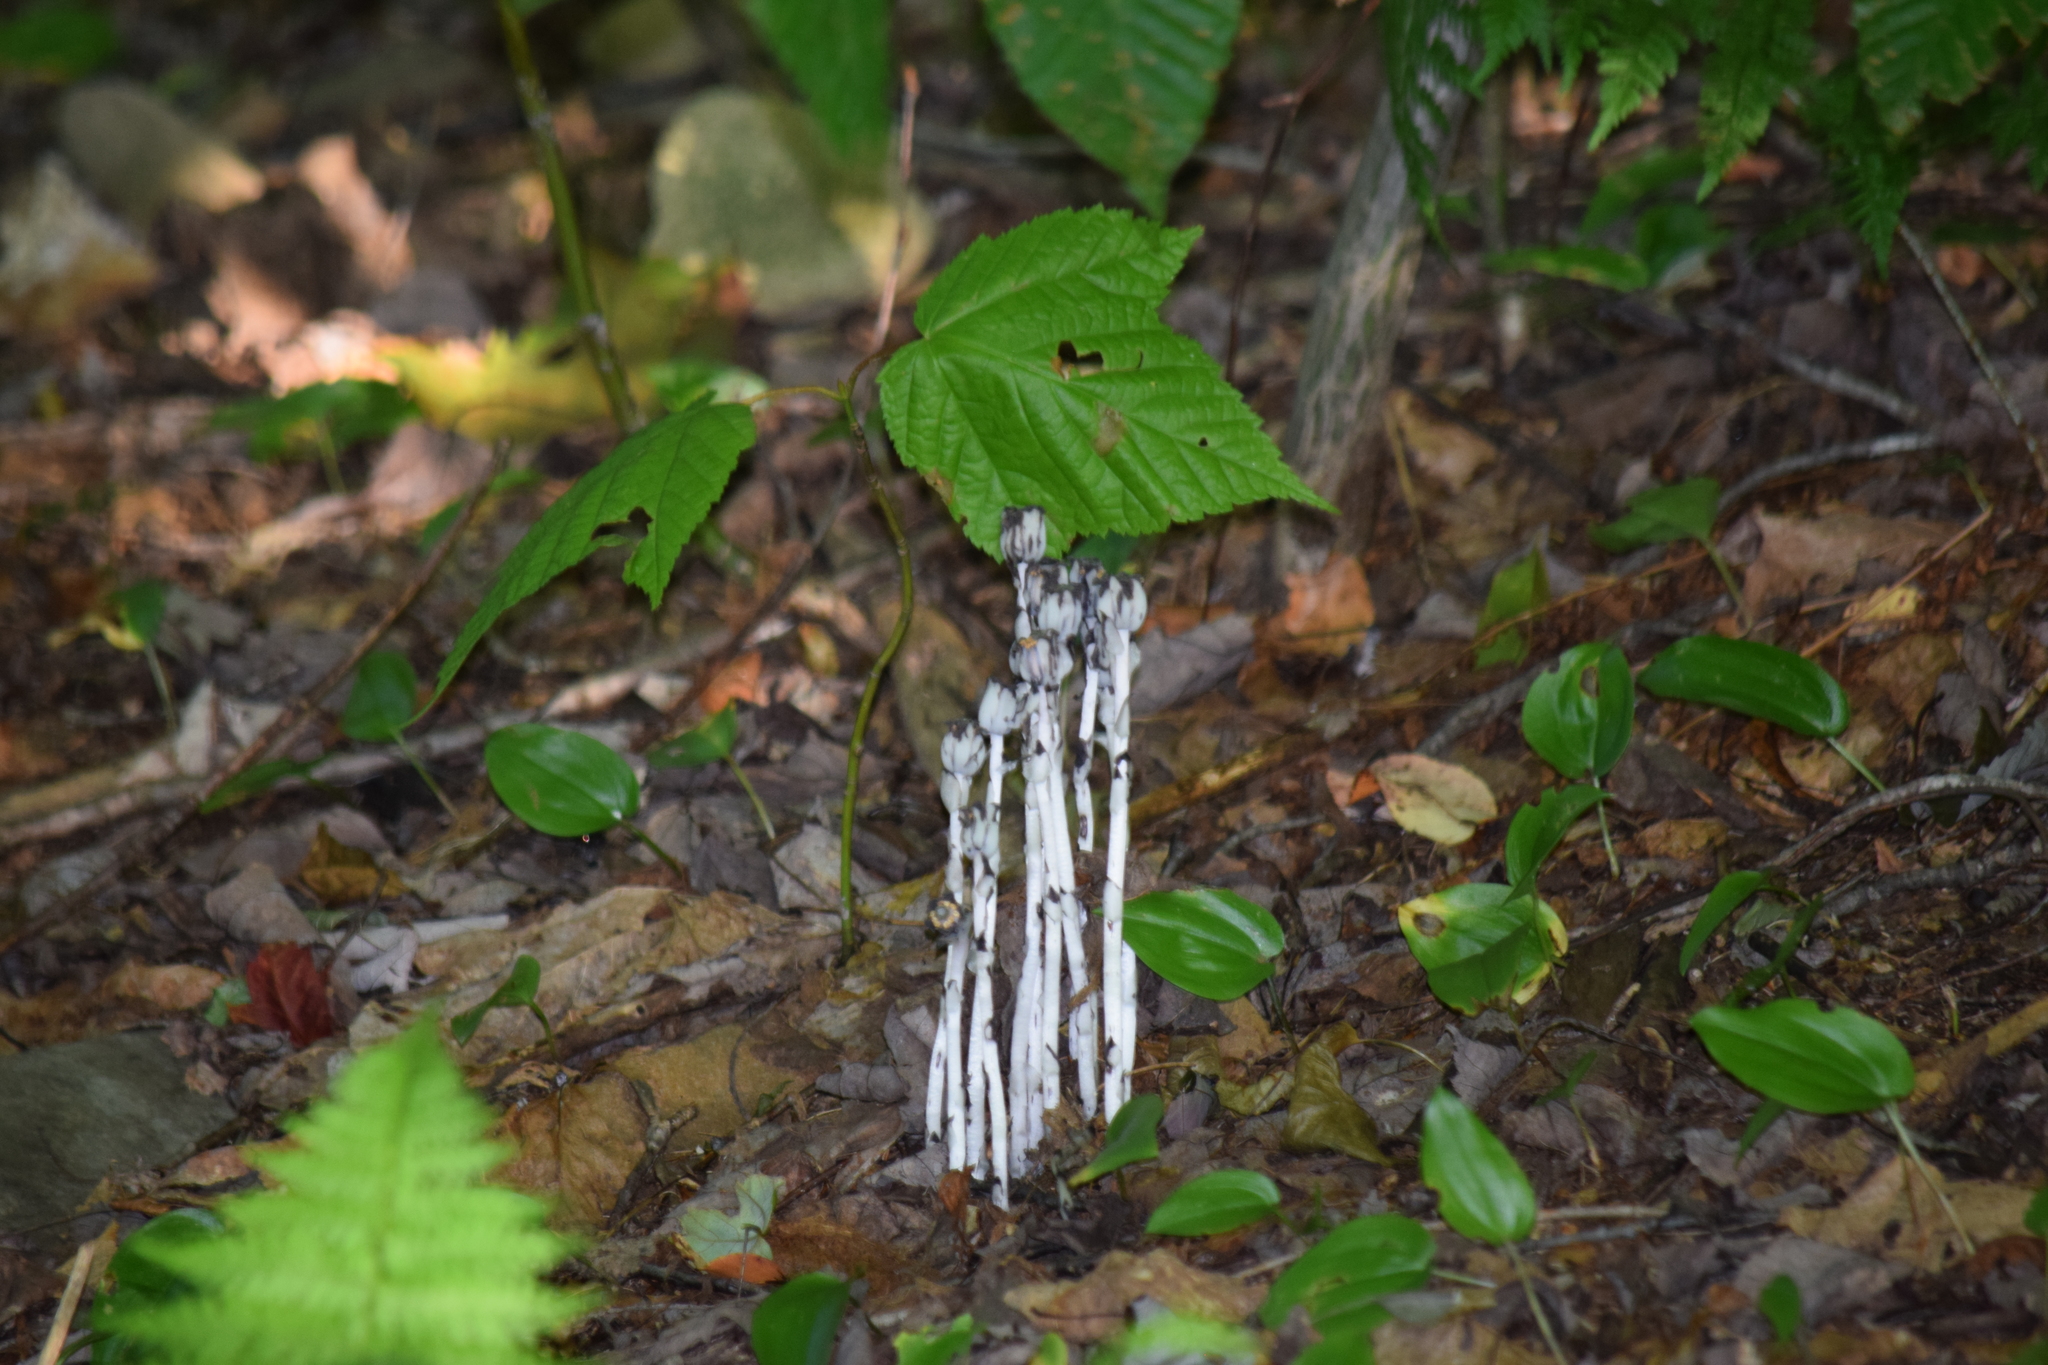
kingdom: Plantae
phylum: Tracheophyta
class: Magnoliopsida
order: Ericales
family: Ericaceae
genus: Monotropa
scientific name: Monotropa uniflora
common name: Convulsion root
